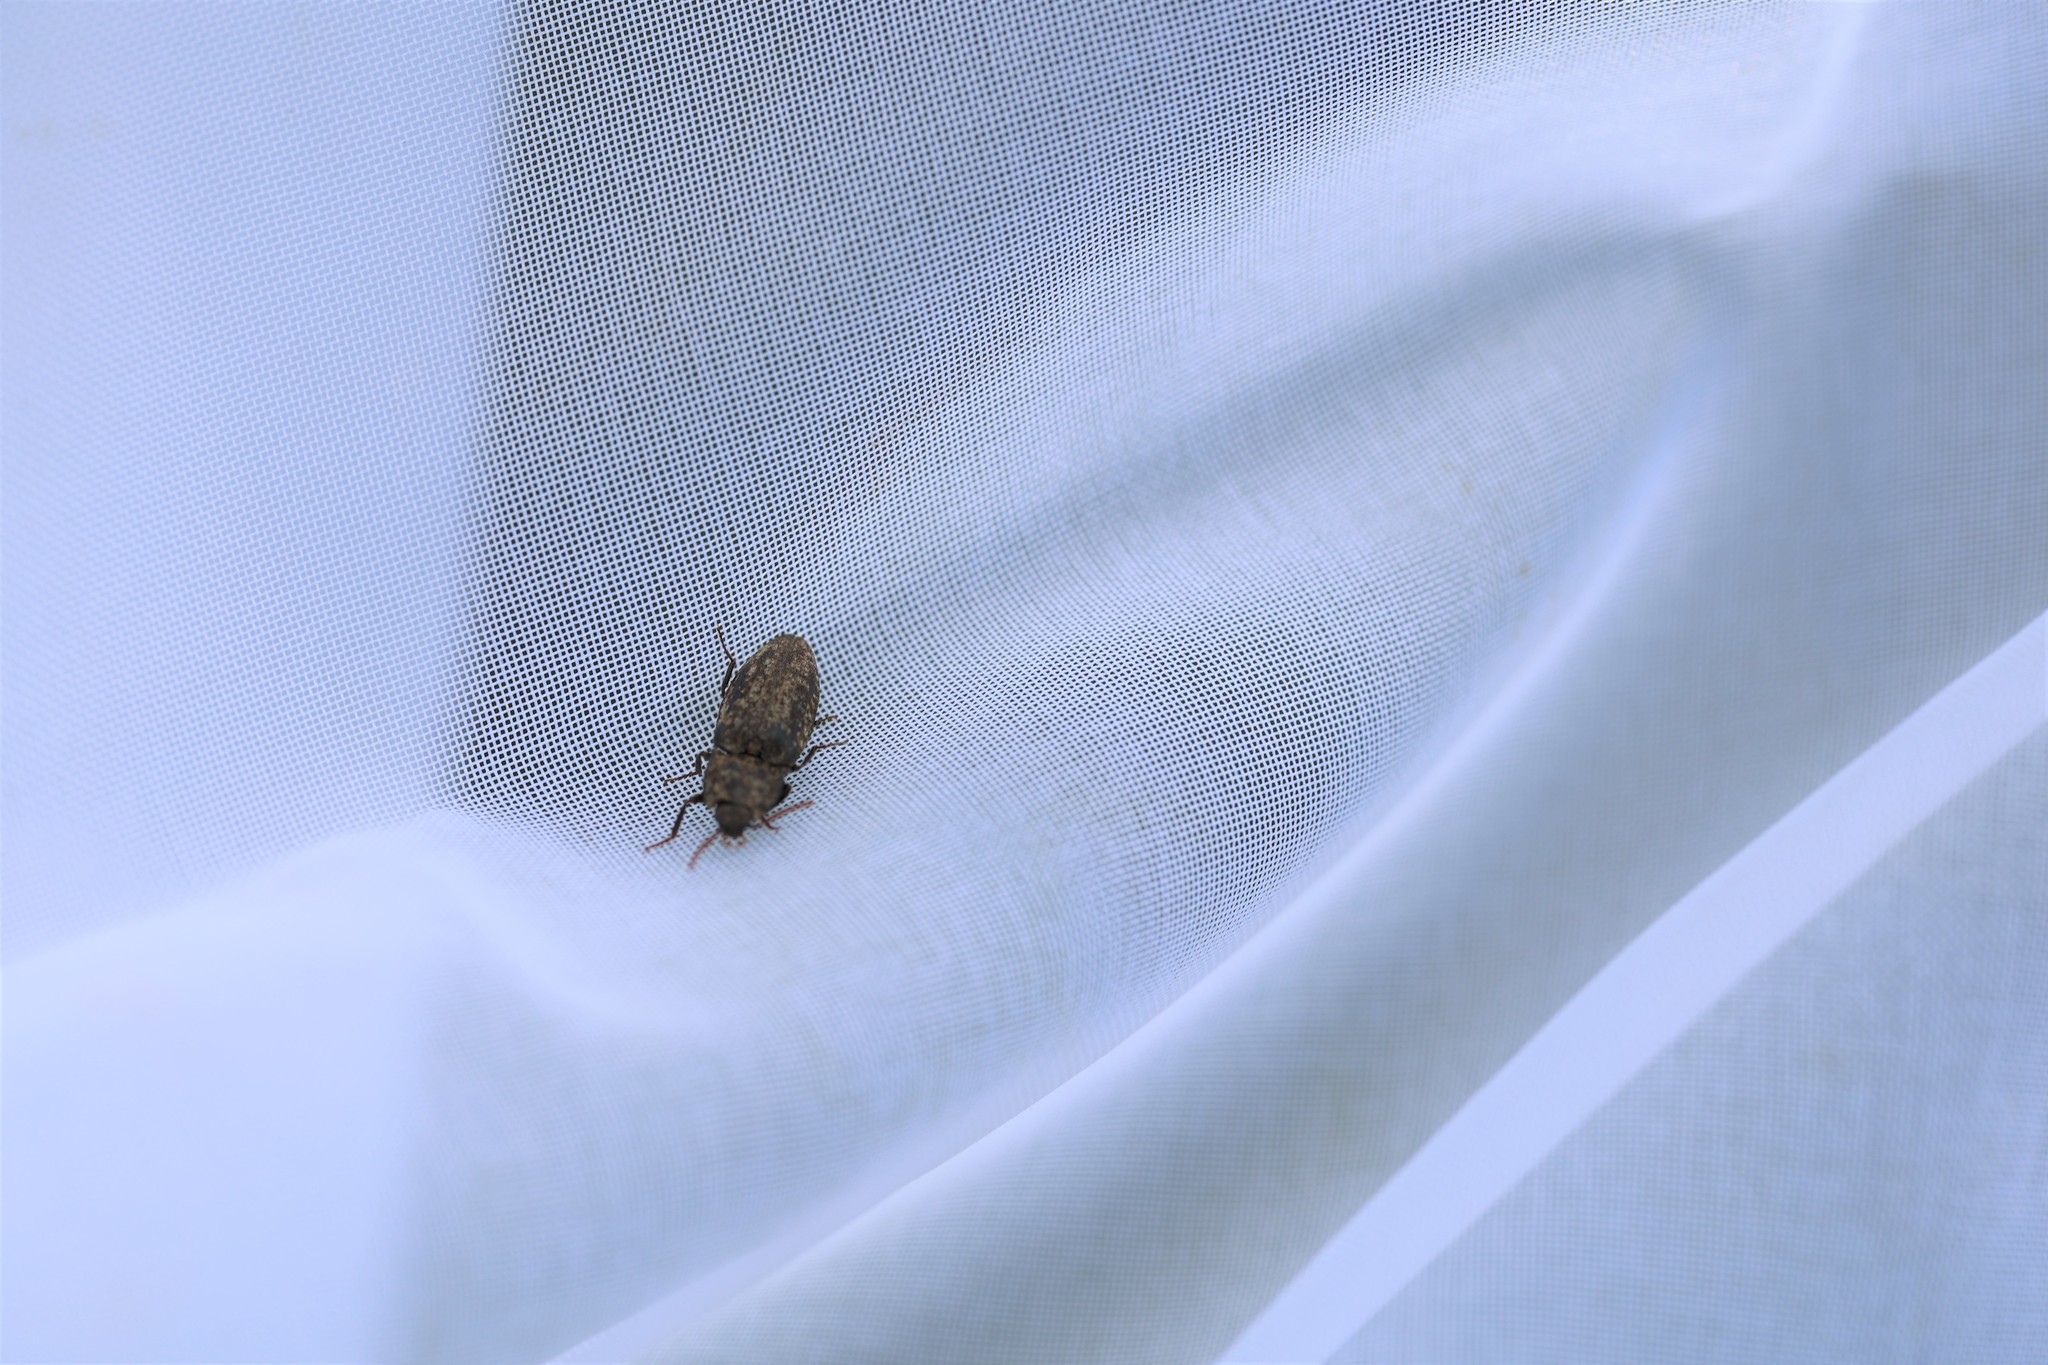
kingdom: Animalia
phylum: Arthropoda
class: Insecta
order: Coleoptera
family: Elateridae
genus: Agrypnus
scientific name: Agrypnus murinus
